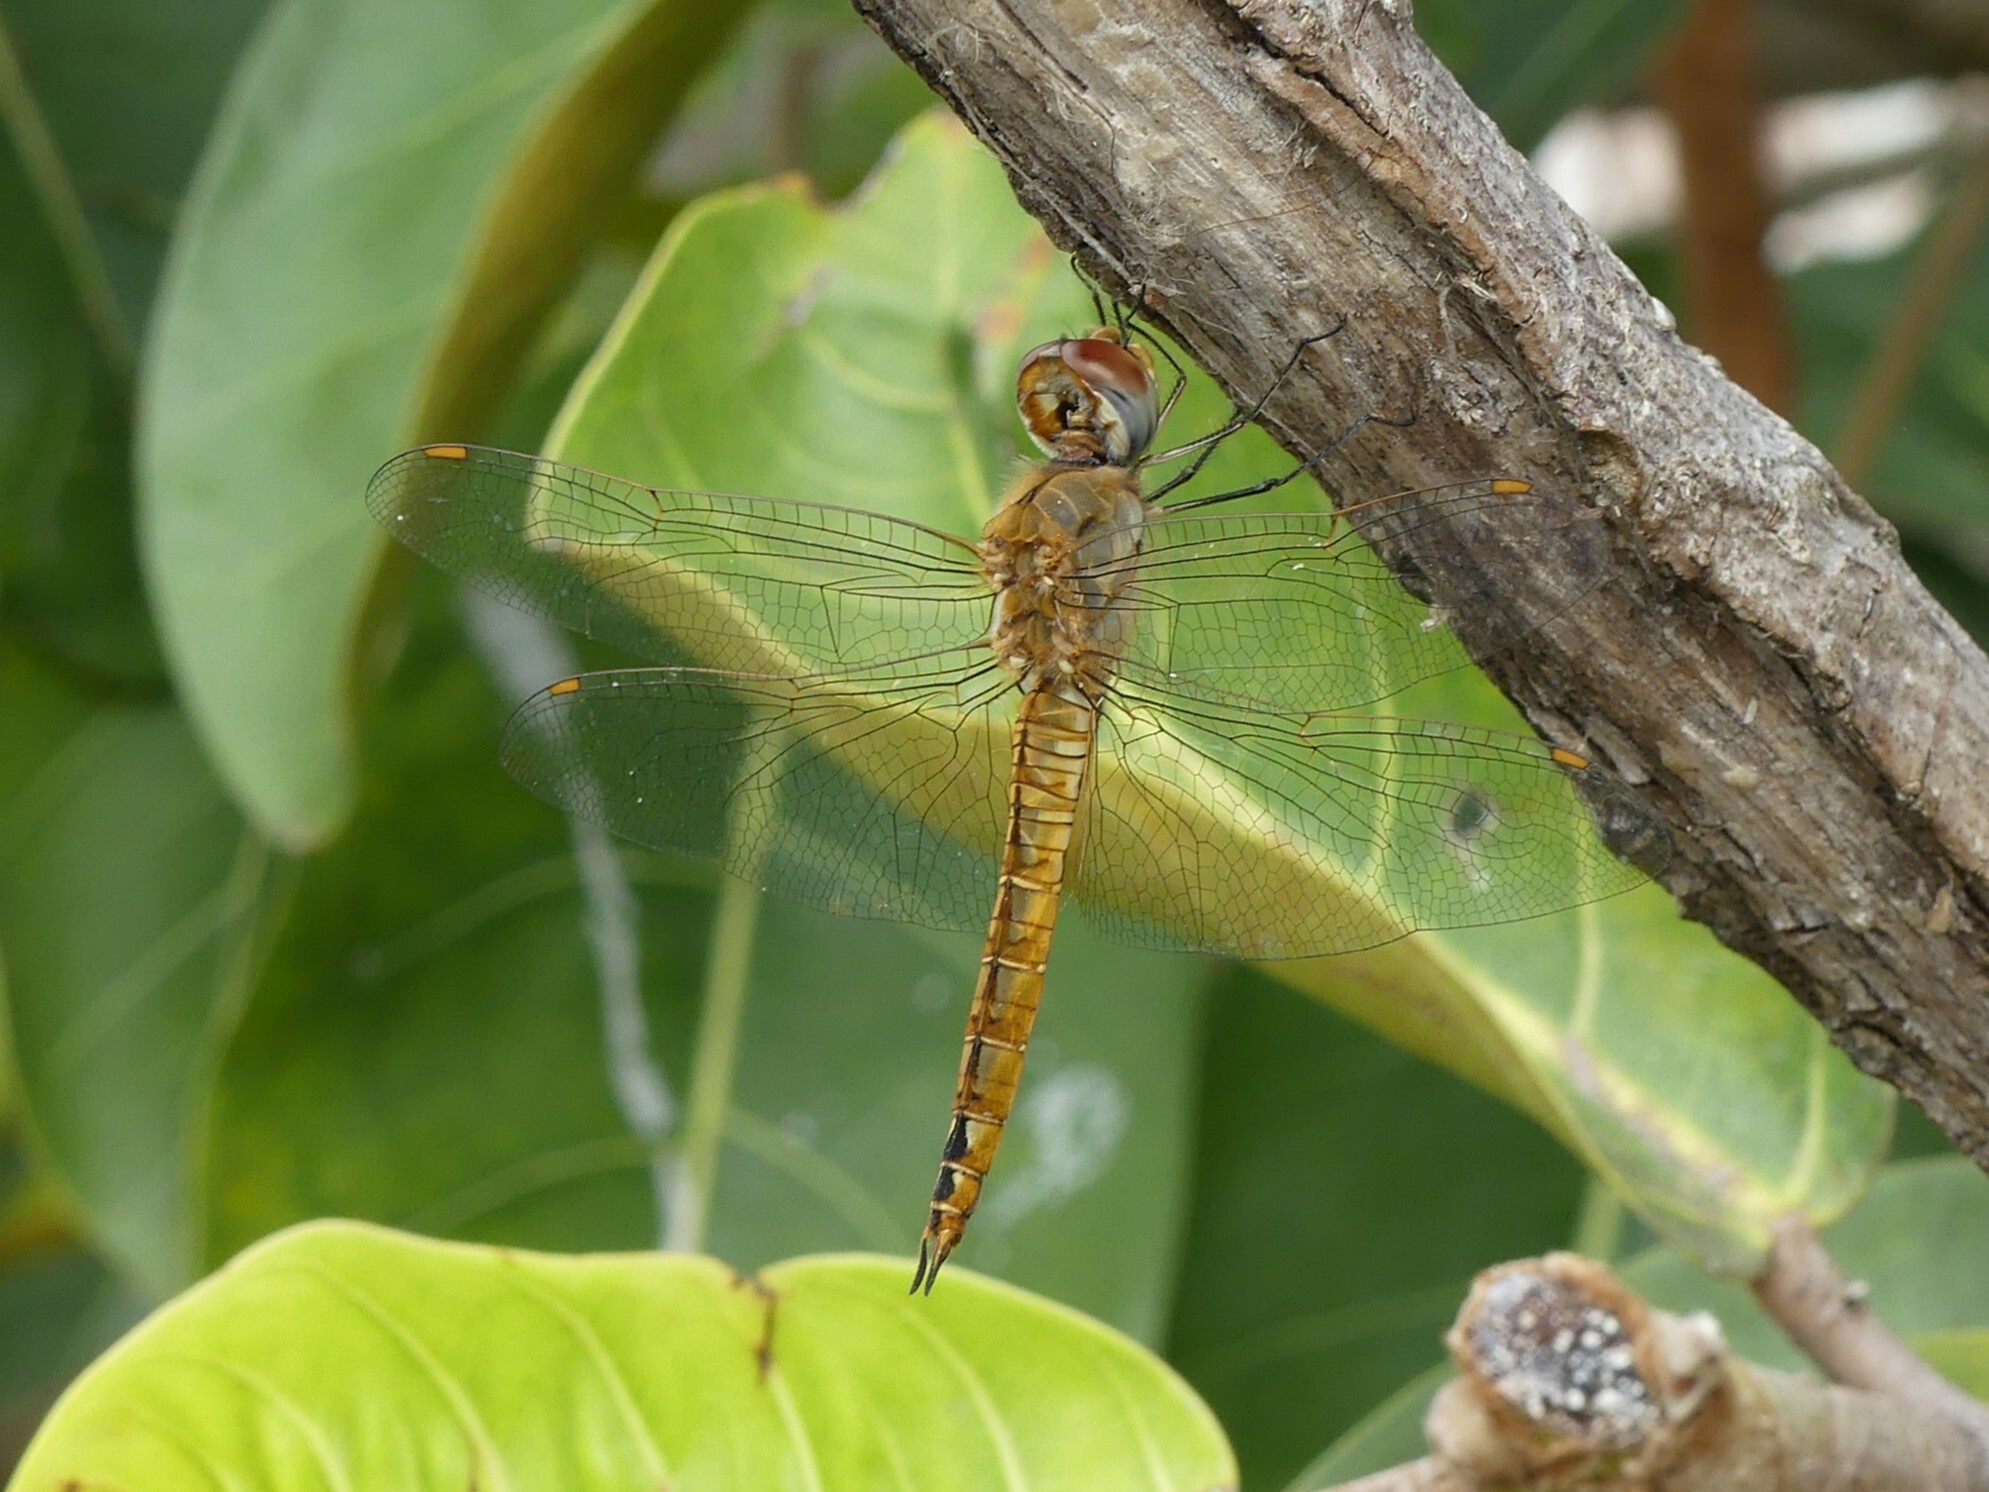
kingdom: Animalia
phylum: Arthropoda
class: Insecta
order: Odonata
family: Libellulidae
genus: Pantala
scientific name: Pantala flavescens
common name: Wandering glider
